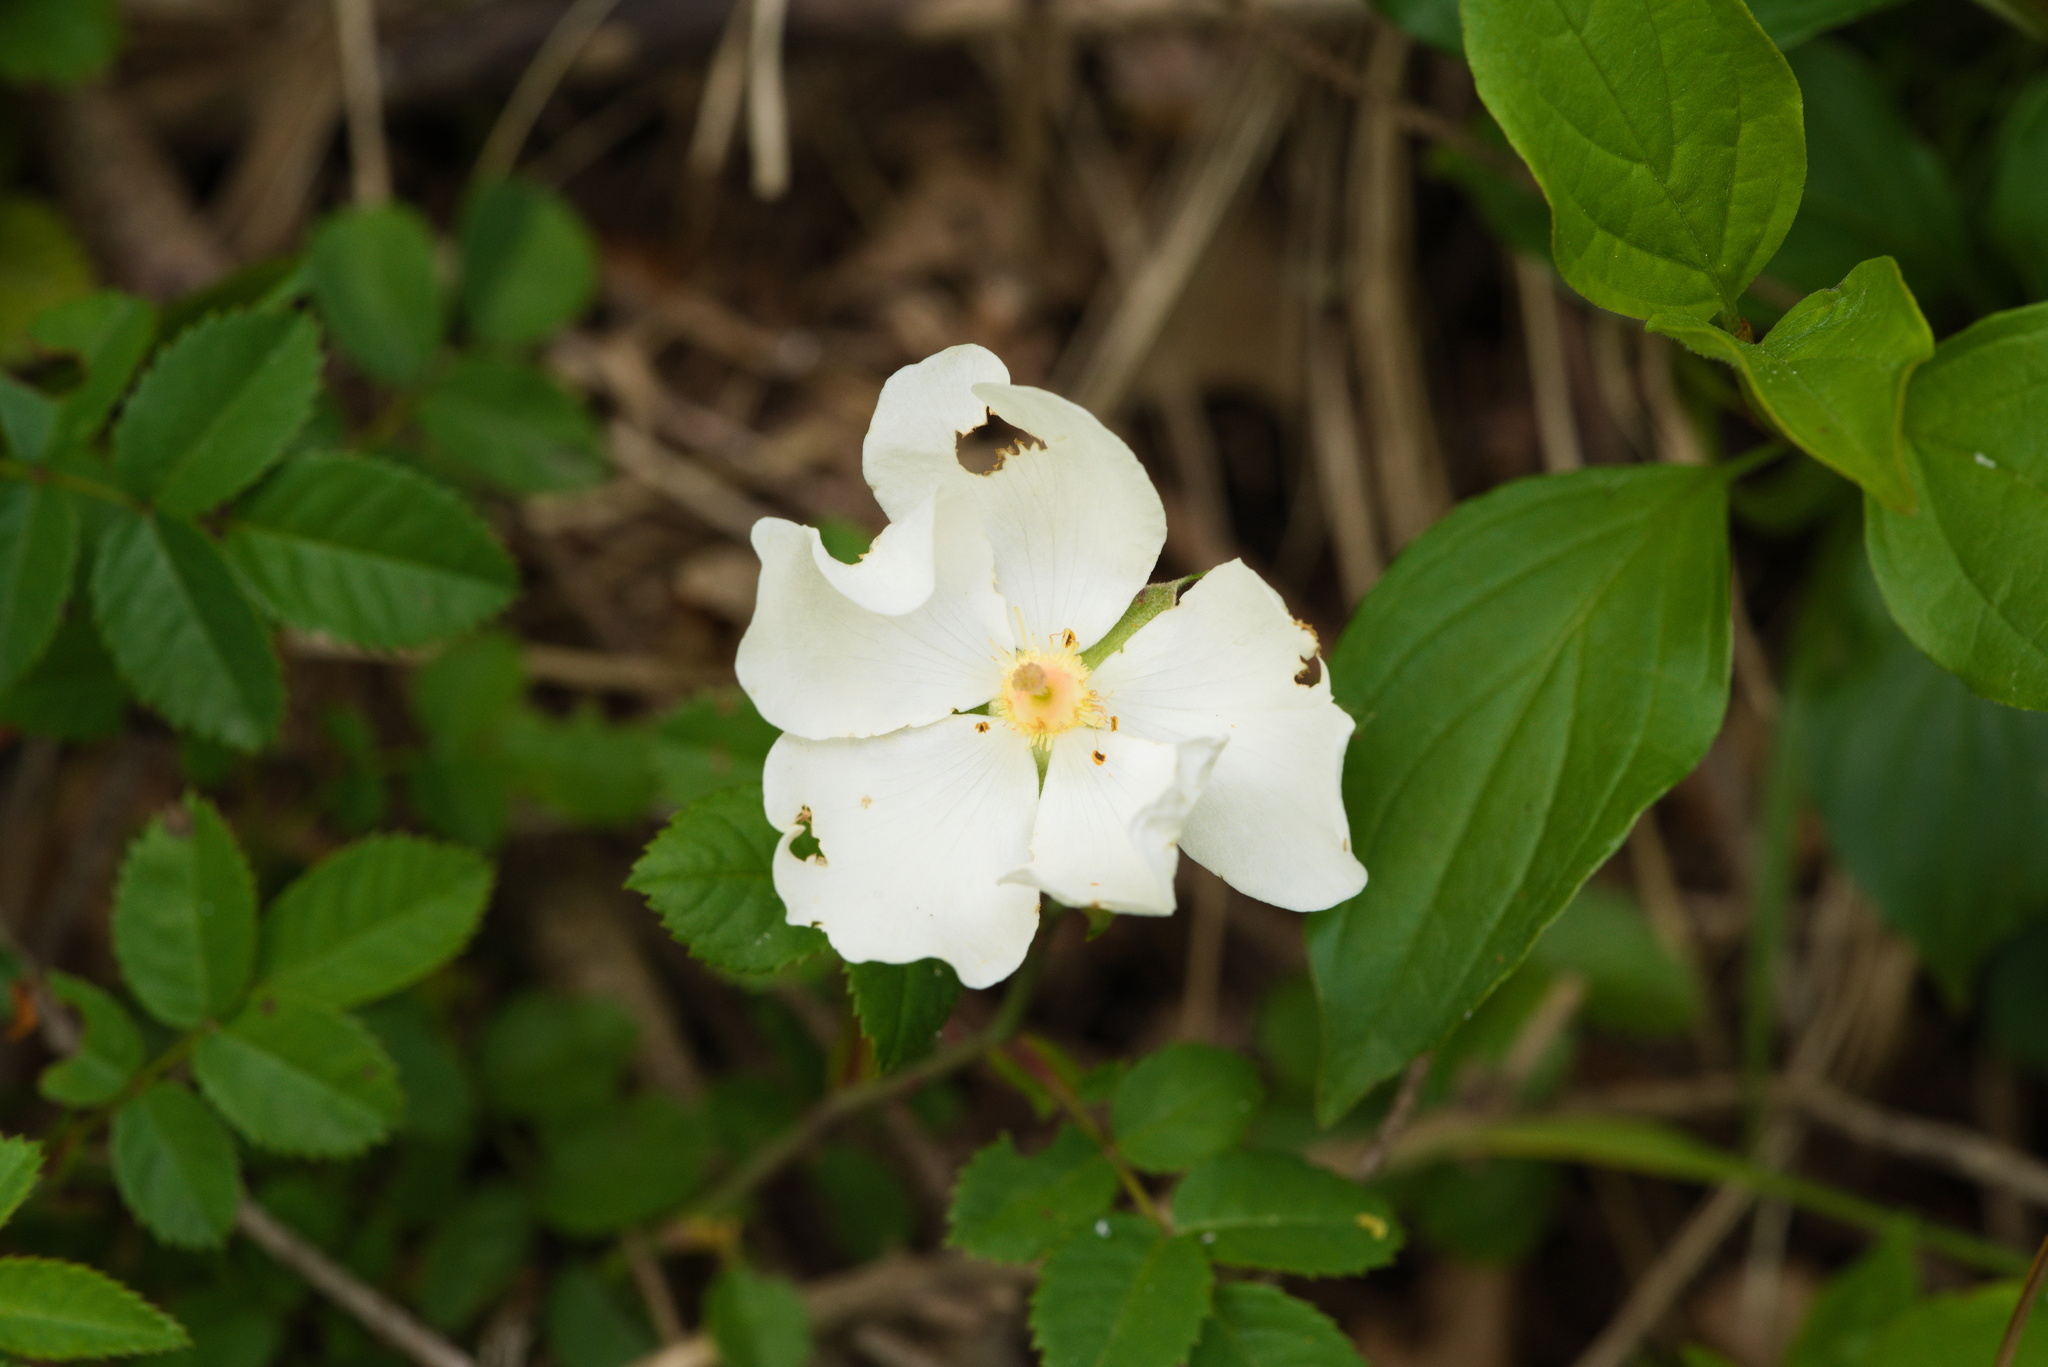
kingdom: Plantae
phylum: Tracheophyta
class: Magnoliopsida
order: Rosales
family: Rosaceae
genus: Rosa
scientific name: Rosa arvensis
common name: Field rose
